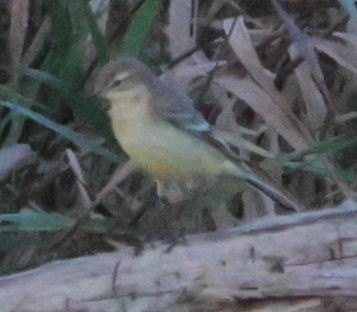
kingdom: Animalia
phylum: Chordata
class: Aves
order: Passeriformes
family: Motacillidae
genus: Motacilla
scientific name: Motacilla flava
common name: Western yellow wagtail
